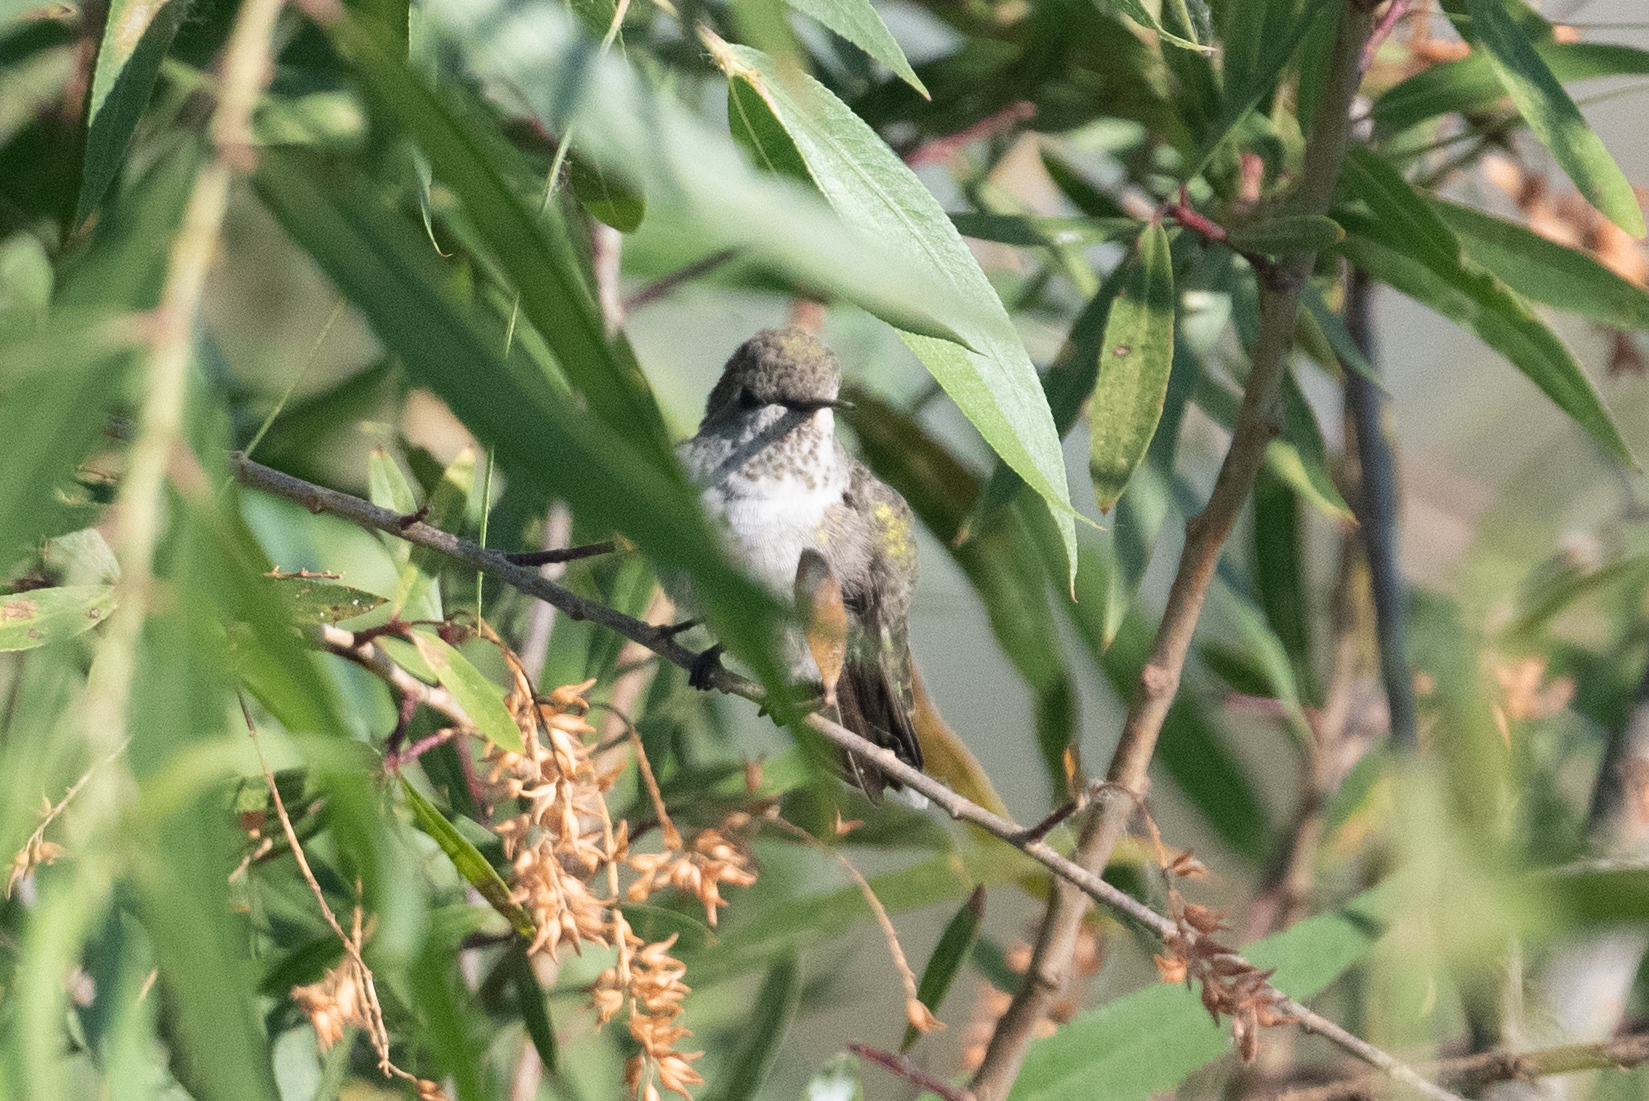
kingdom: Animalia
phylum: Chordata
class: Aves
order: Apodiformes
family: Trochilidae
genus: Calypte
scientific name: Calypte anna
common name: Anna's hummingbird
